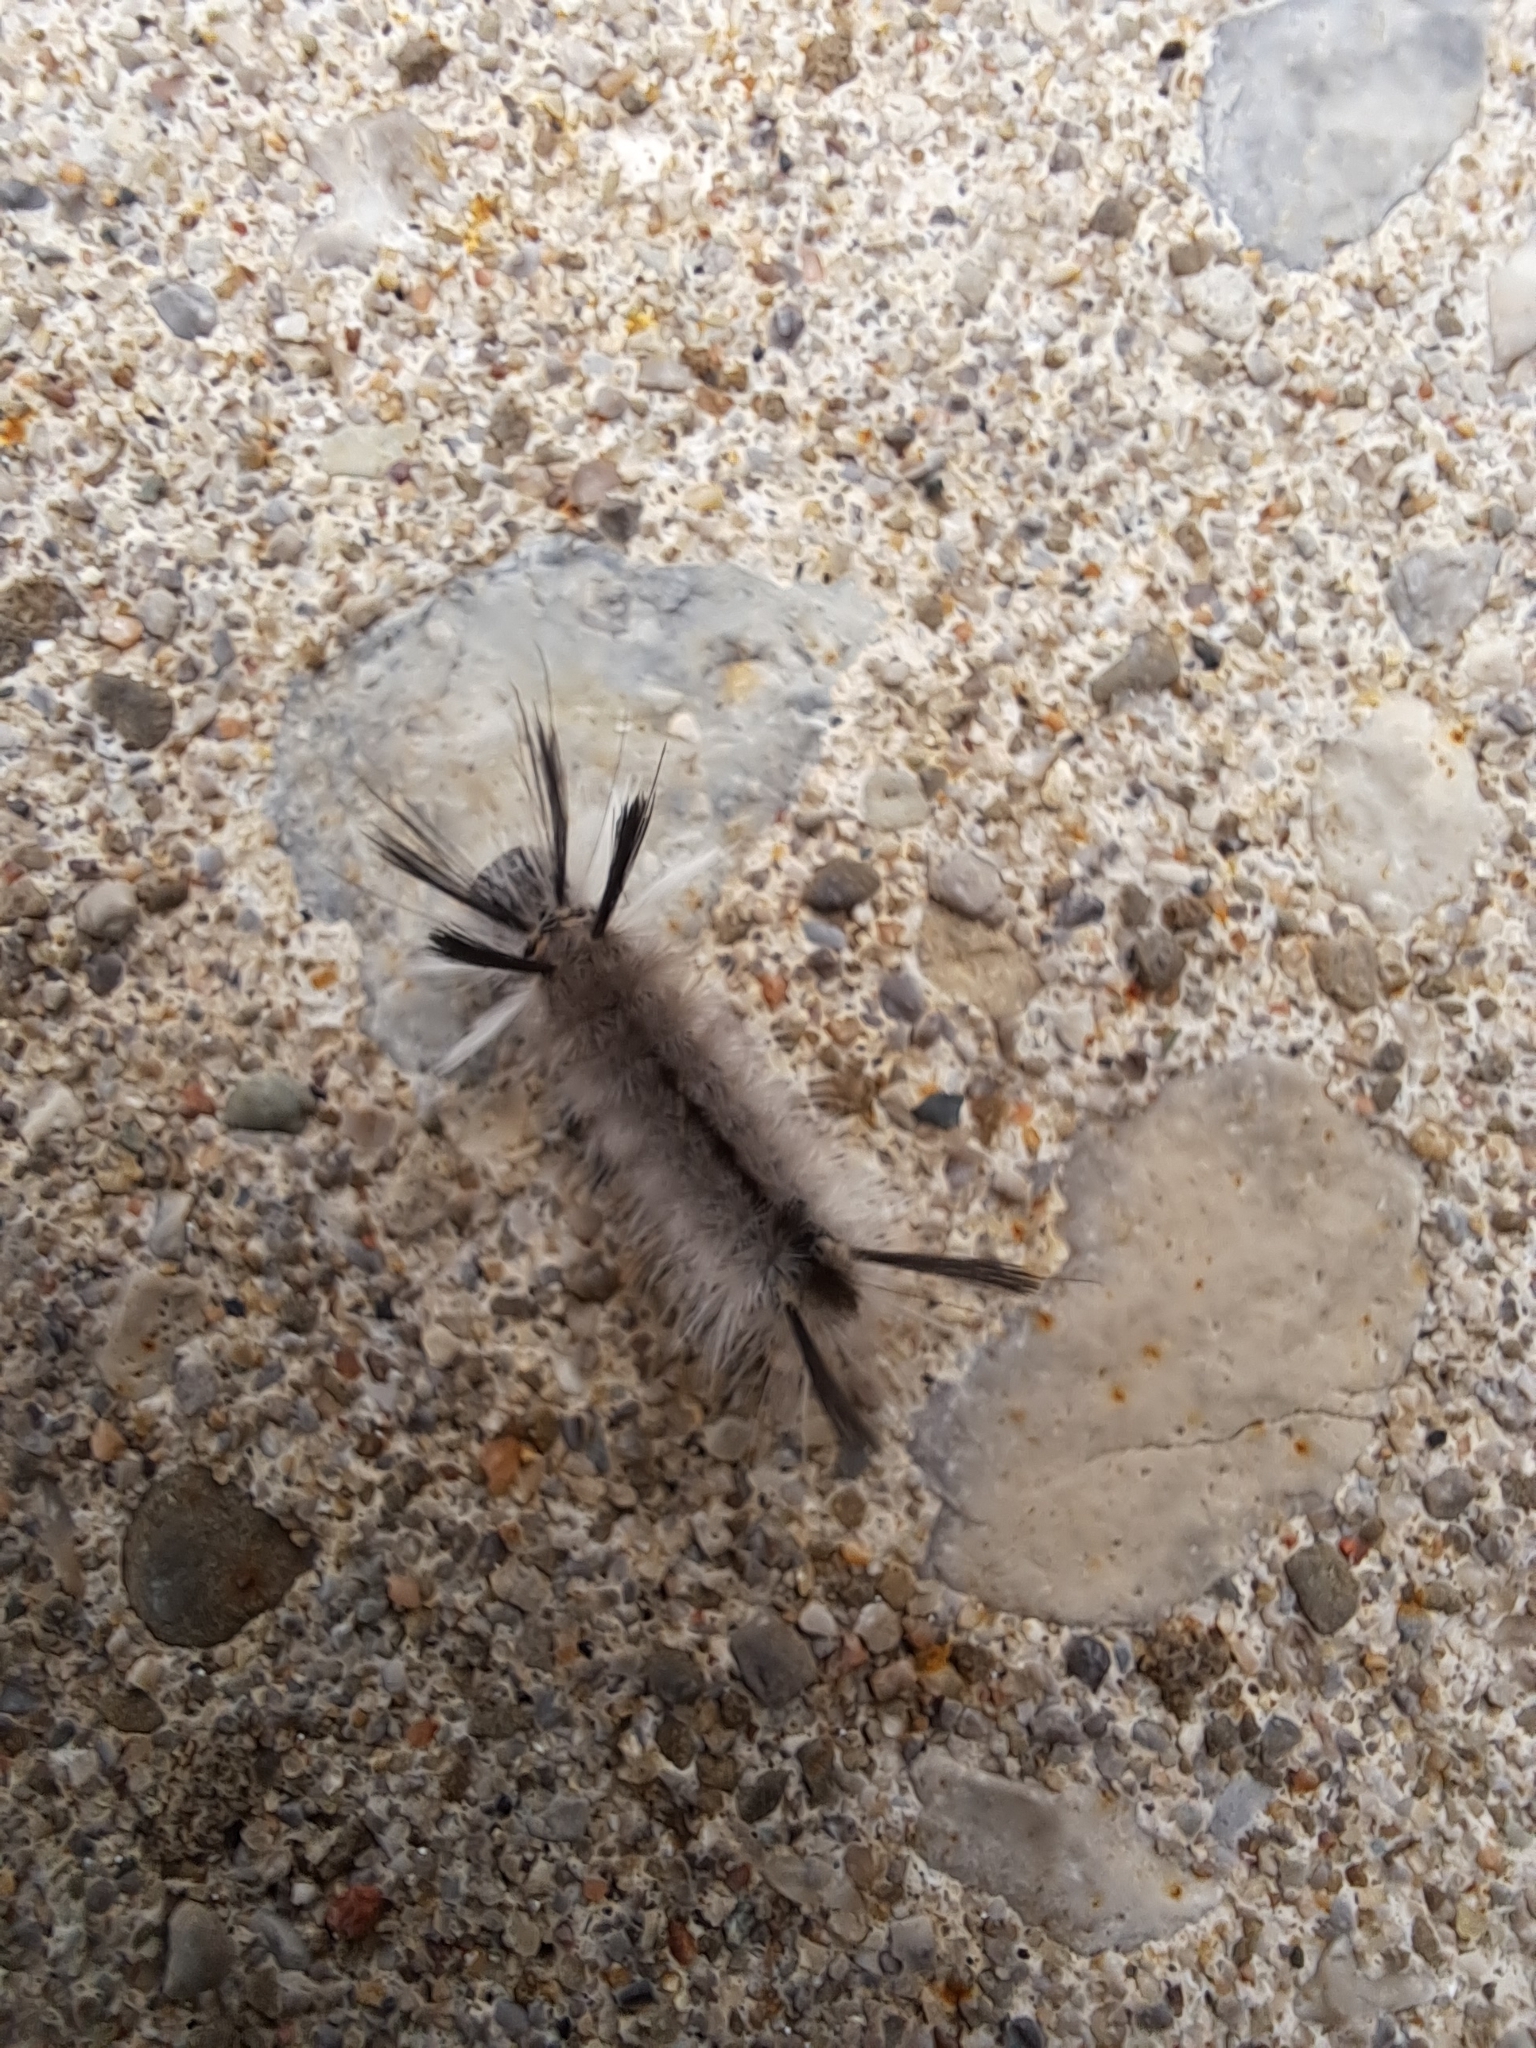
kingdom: Animalia
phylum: Arthropoda
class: Insecta
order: Lepidoptera
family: Erebidae
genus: Halysidota
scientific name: Halysidota tessellaris
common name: Banded tussock moth
